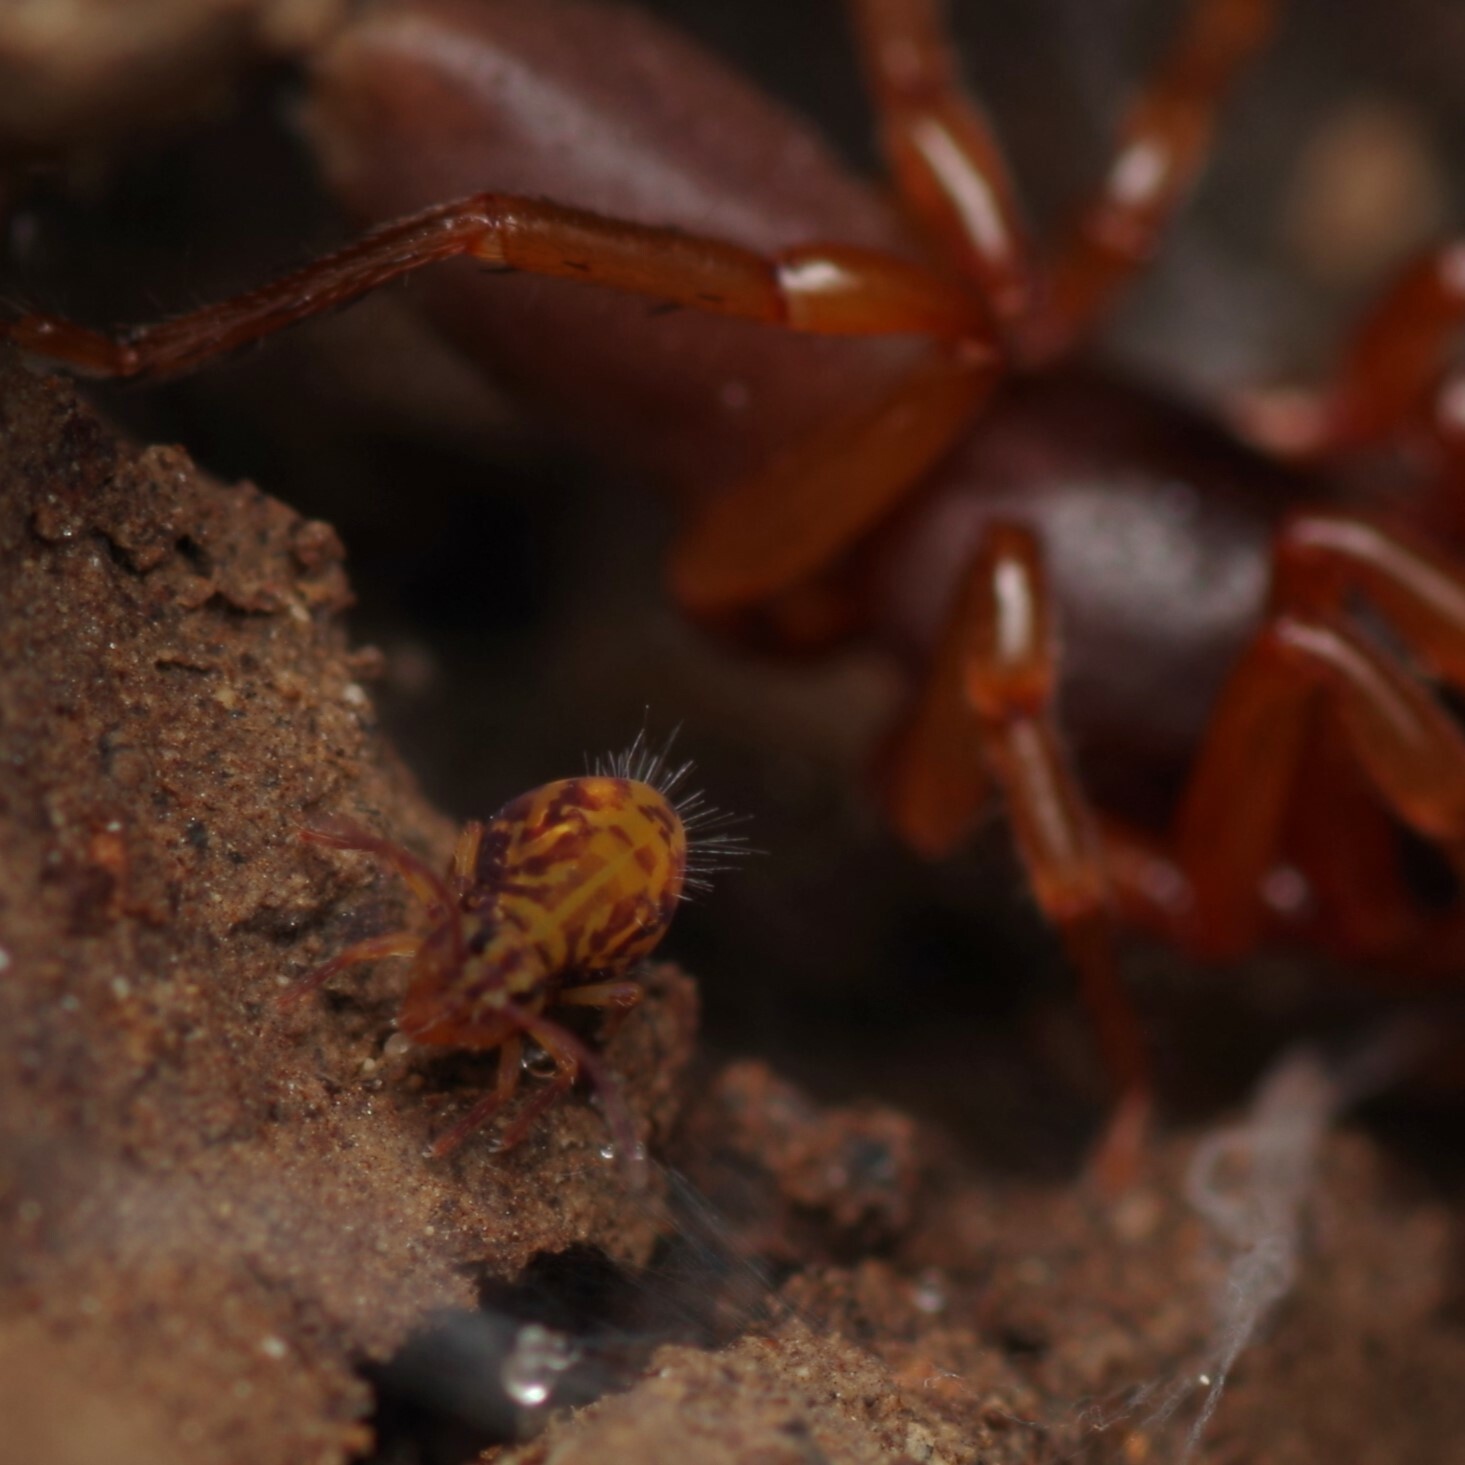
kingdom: Animalia
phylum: Arthropoda
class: Collembola
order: Symphypleona
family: Dicyrtomidae
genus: Dicyrtomina
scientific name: Dicyrtomina ornata
